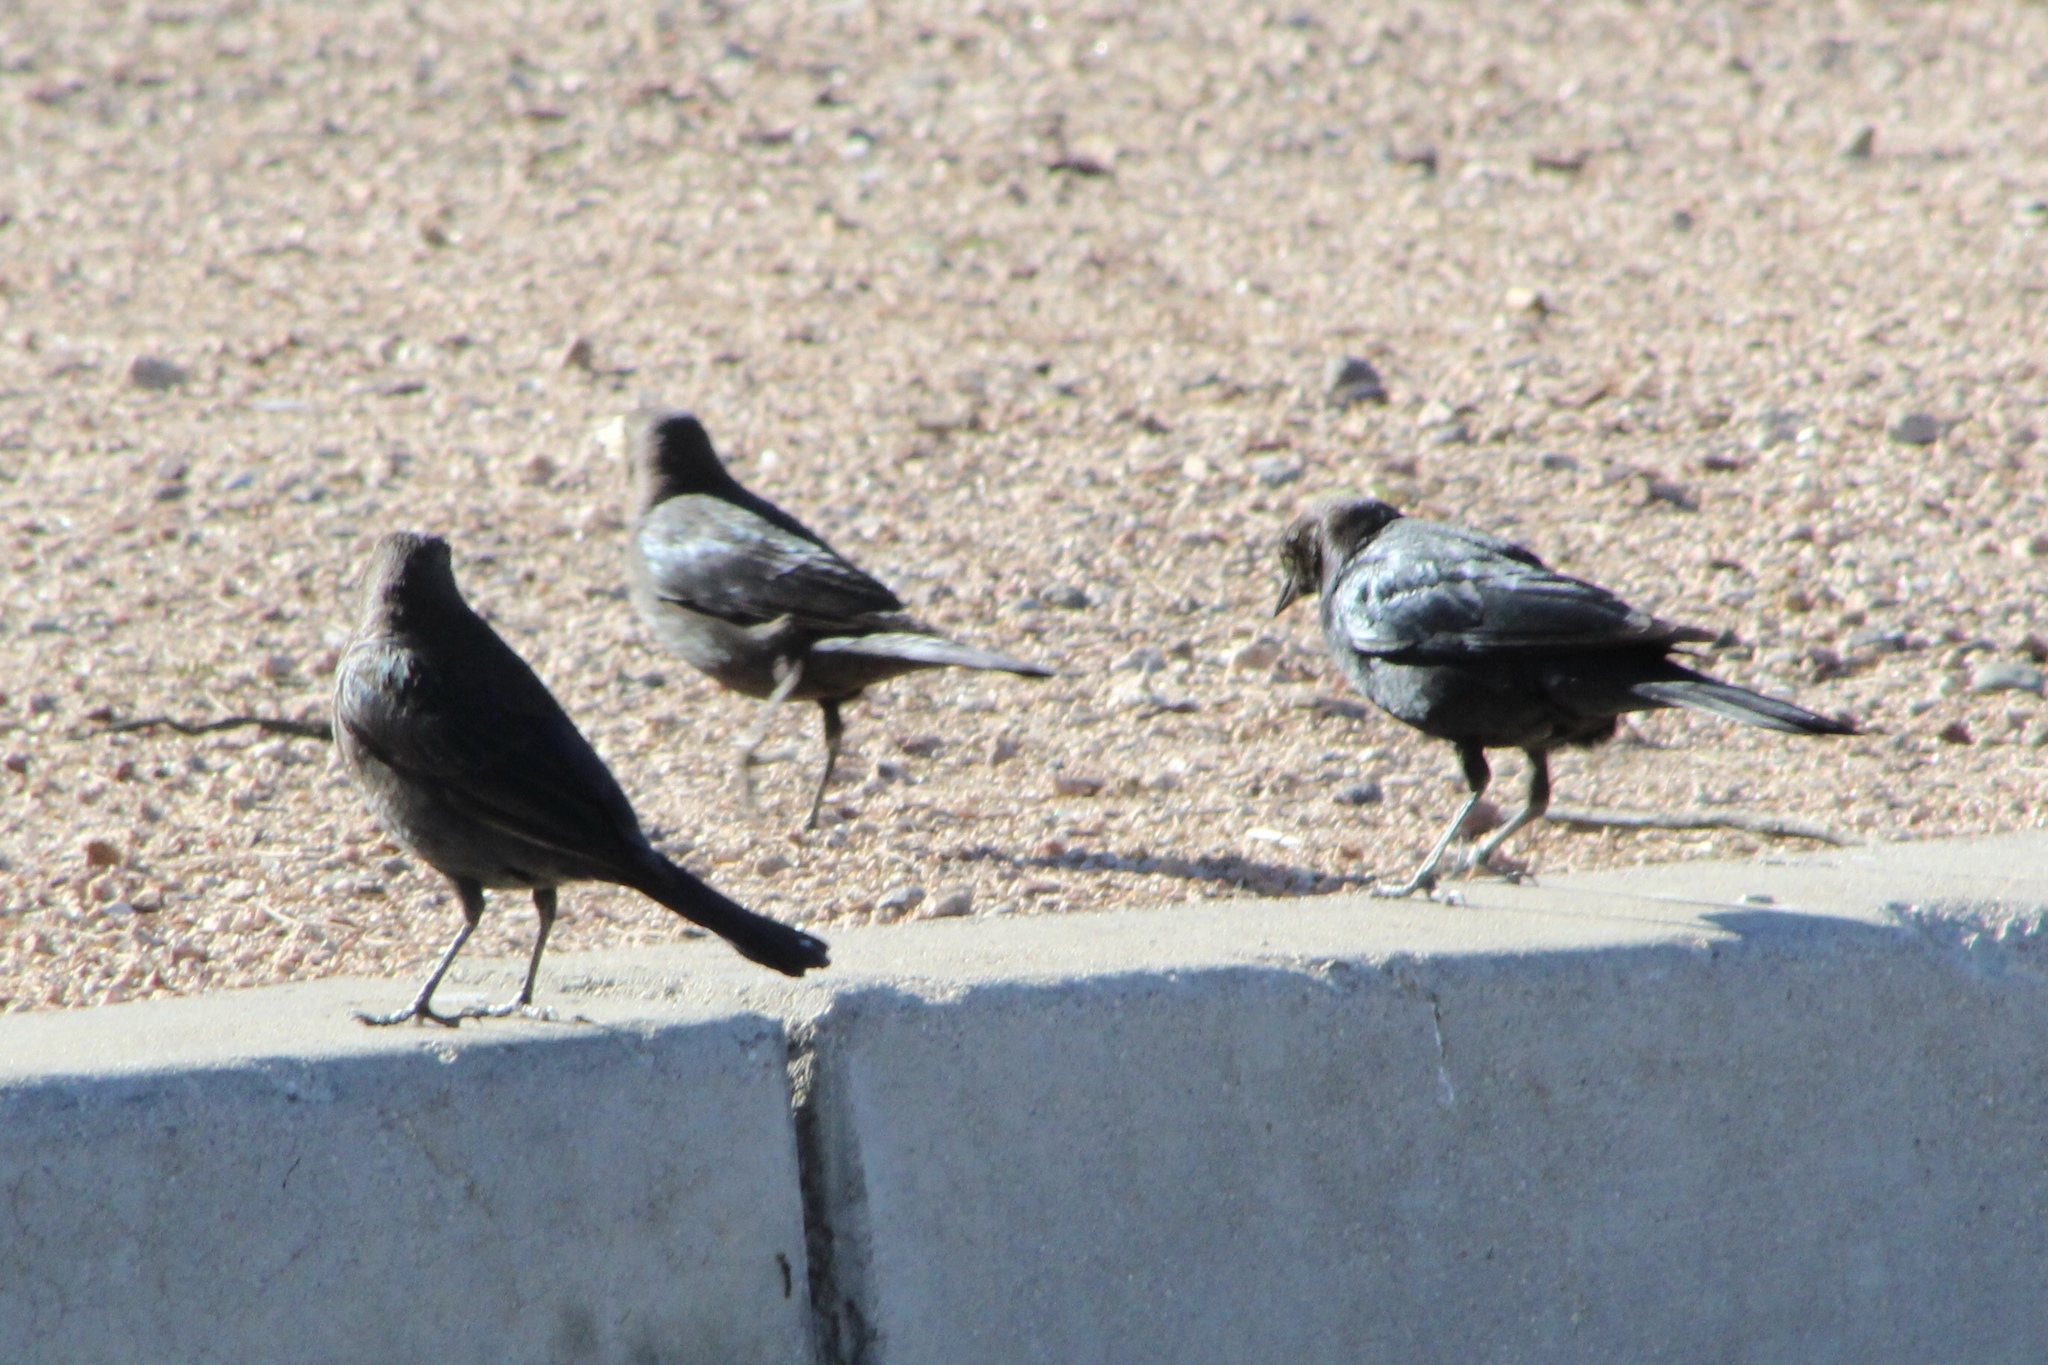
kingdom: Animalia
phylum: Chordata
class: Aves
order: Passeriformes
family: Icteridae
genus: Euphagus
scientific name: Euphagus cyanocephalus
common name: Brewer's blackbird
